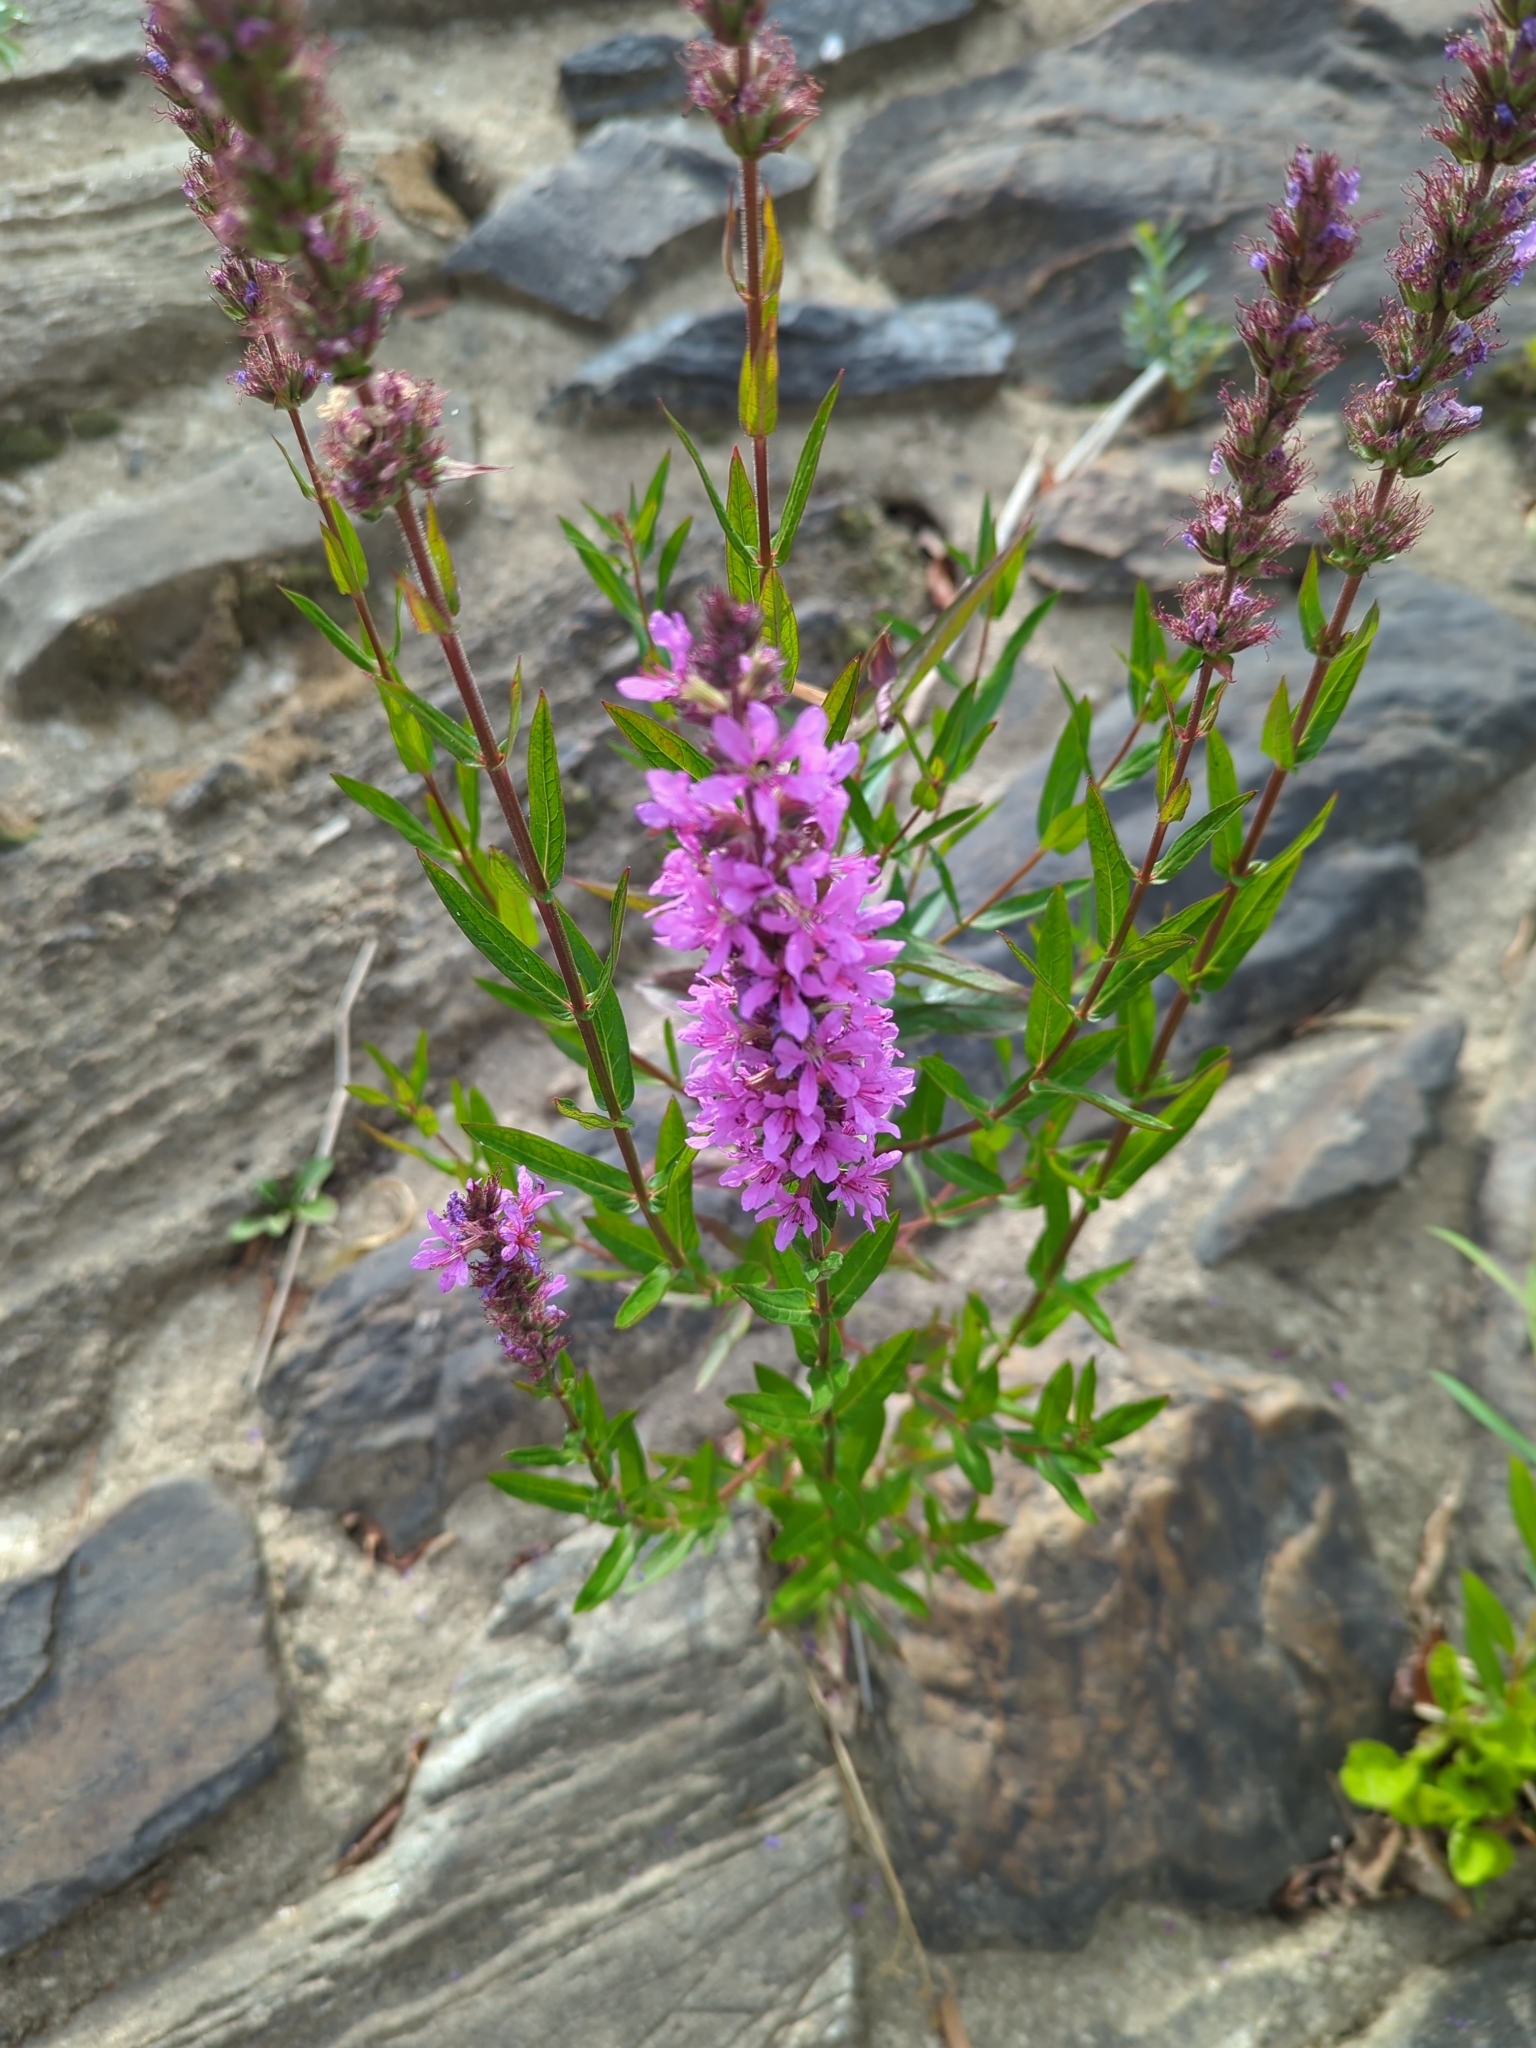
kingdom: Plantae
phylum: Tracheophyta
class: Magnoliopsida
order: Myrtales
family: Lythraceae
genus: Lythrum
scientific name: Lythrum salicaria
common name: Purple loosestrife
